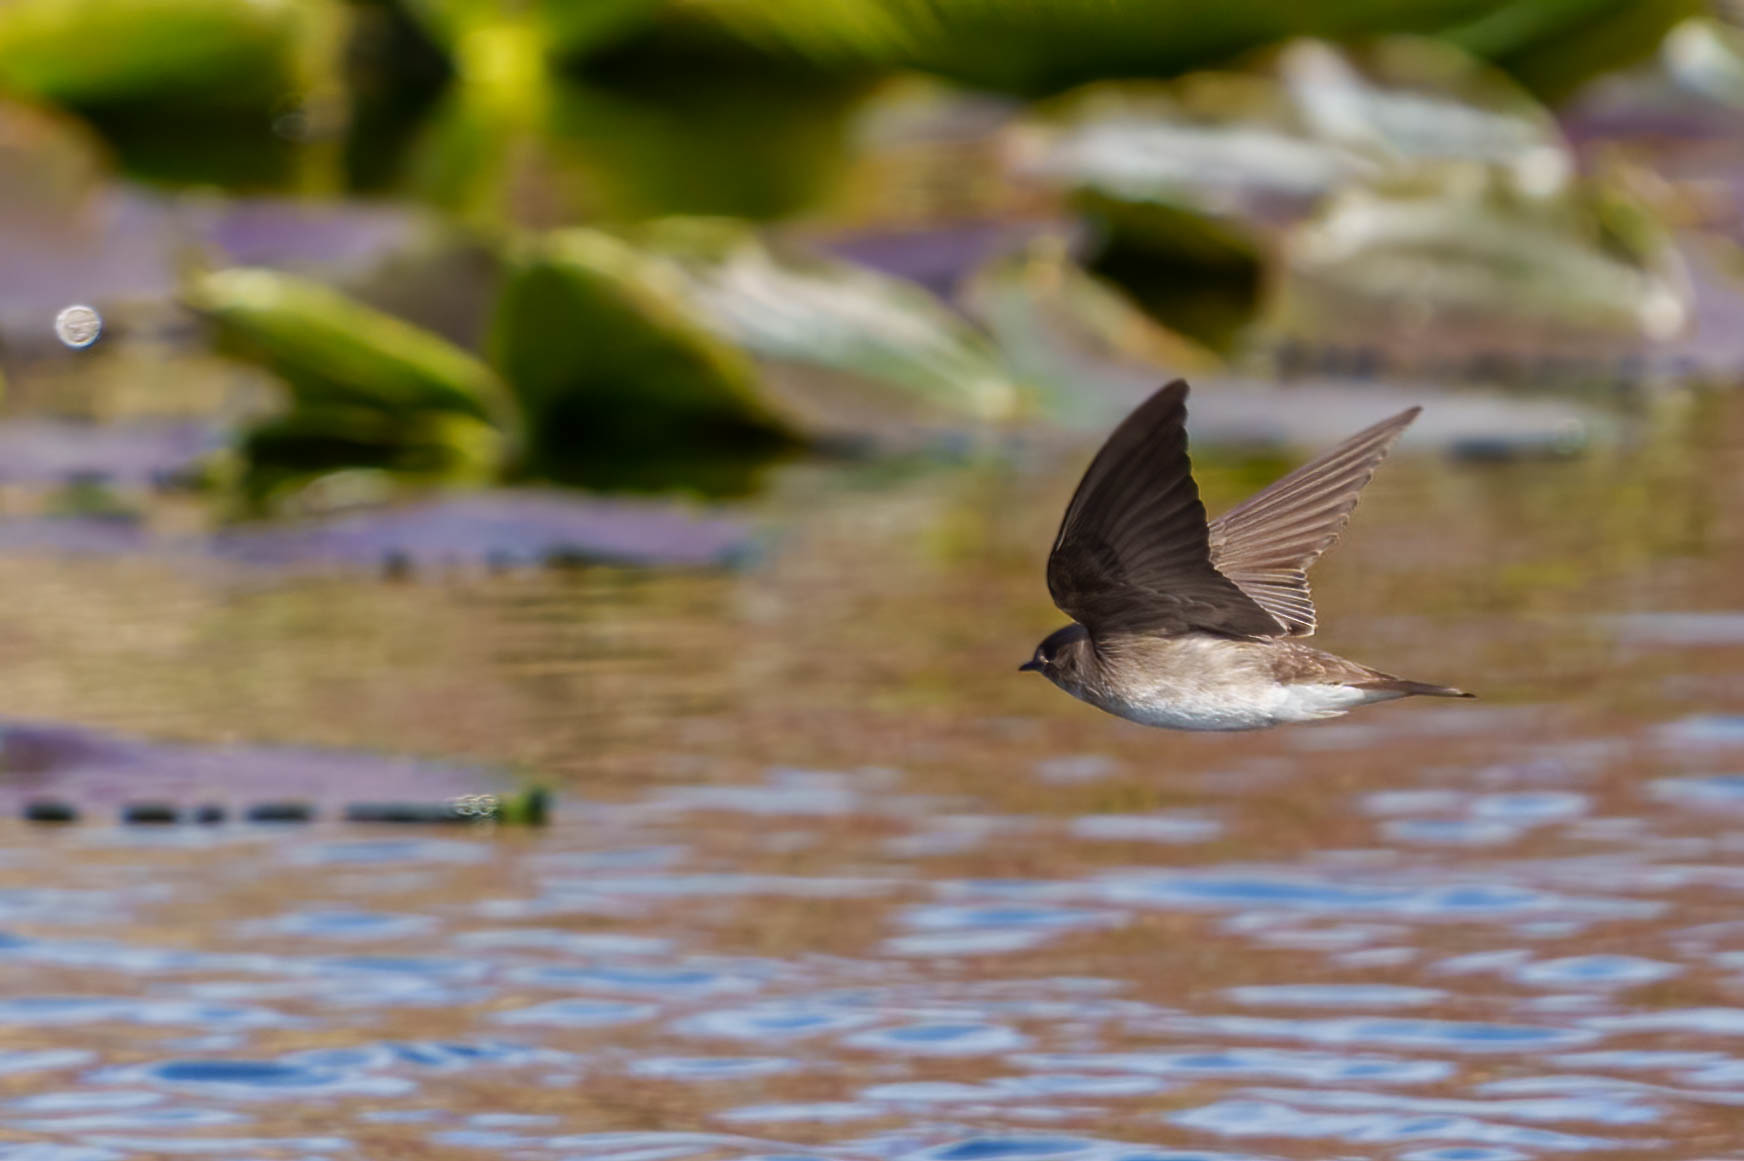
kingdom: Animalia
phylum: Chordata
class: Aves
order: Passeriformes
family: Hirundinidae
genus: Stelgidopteryx
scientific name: Stelgidopteryx serripennis
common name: Northern rough-winged swallow
